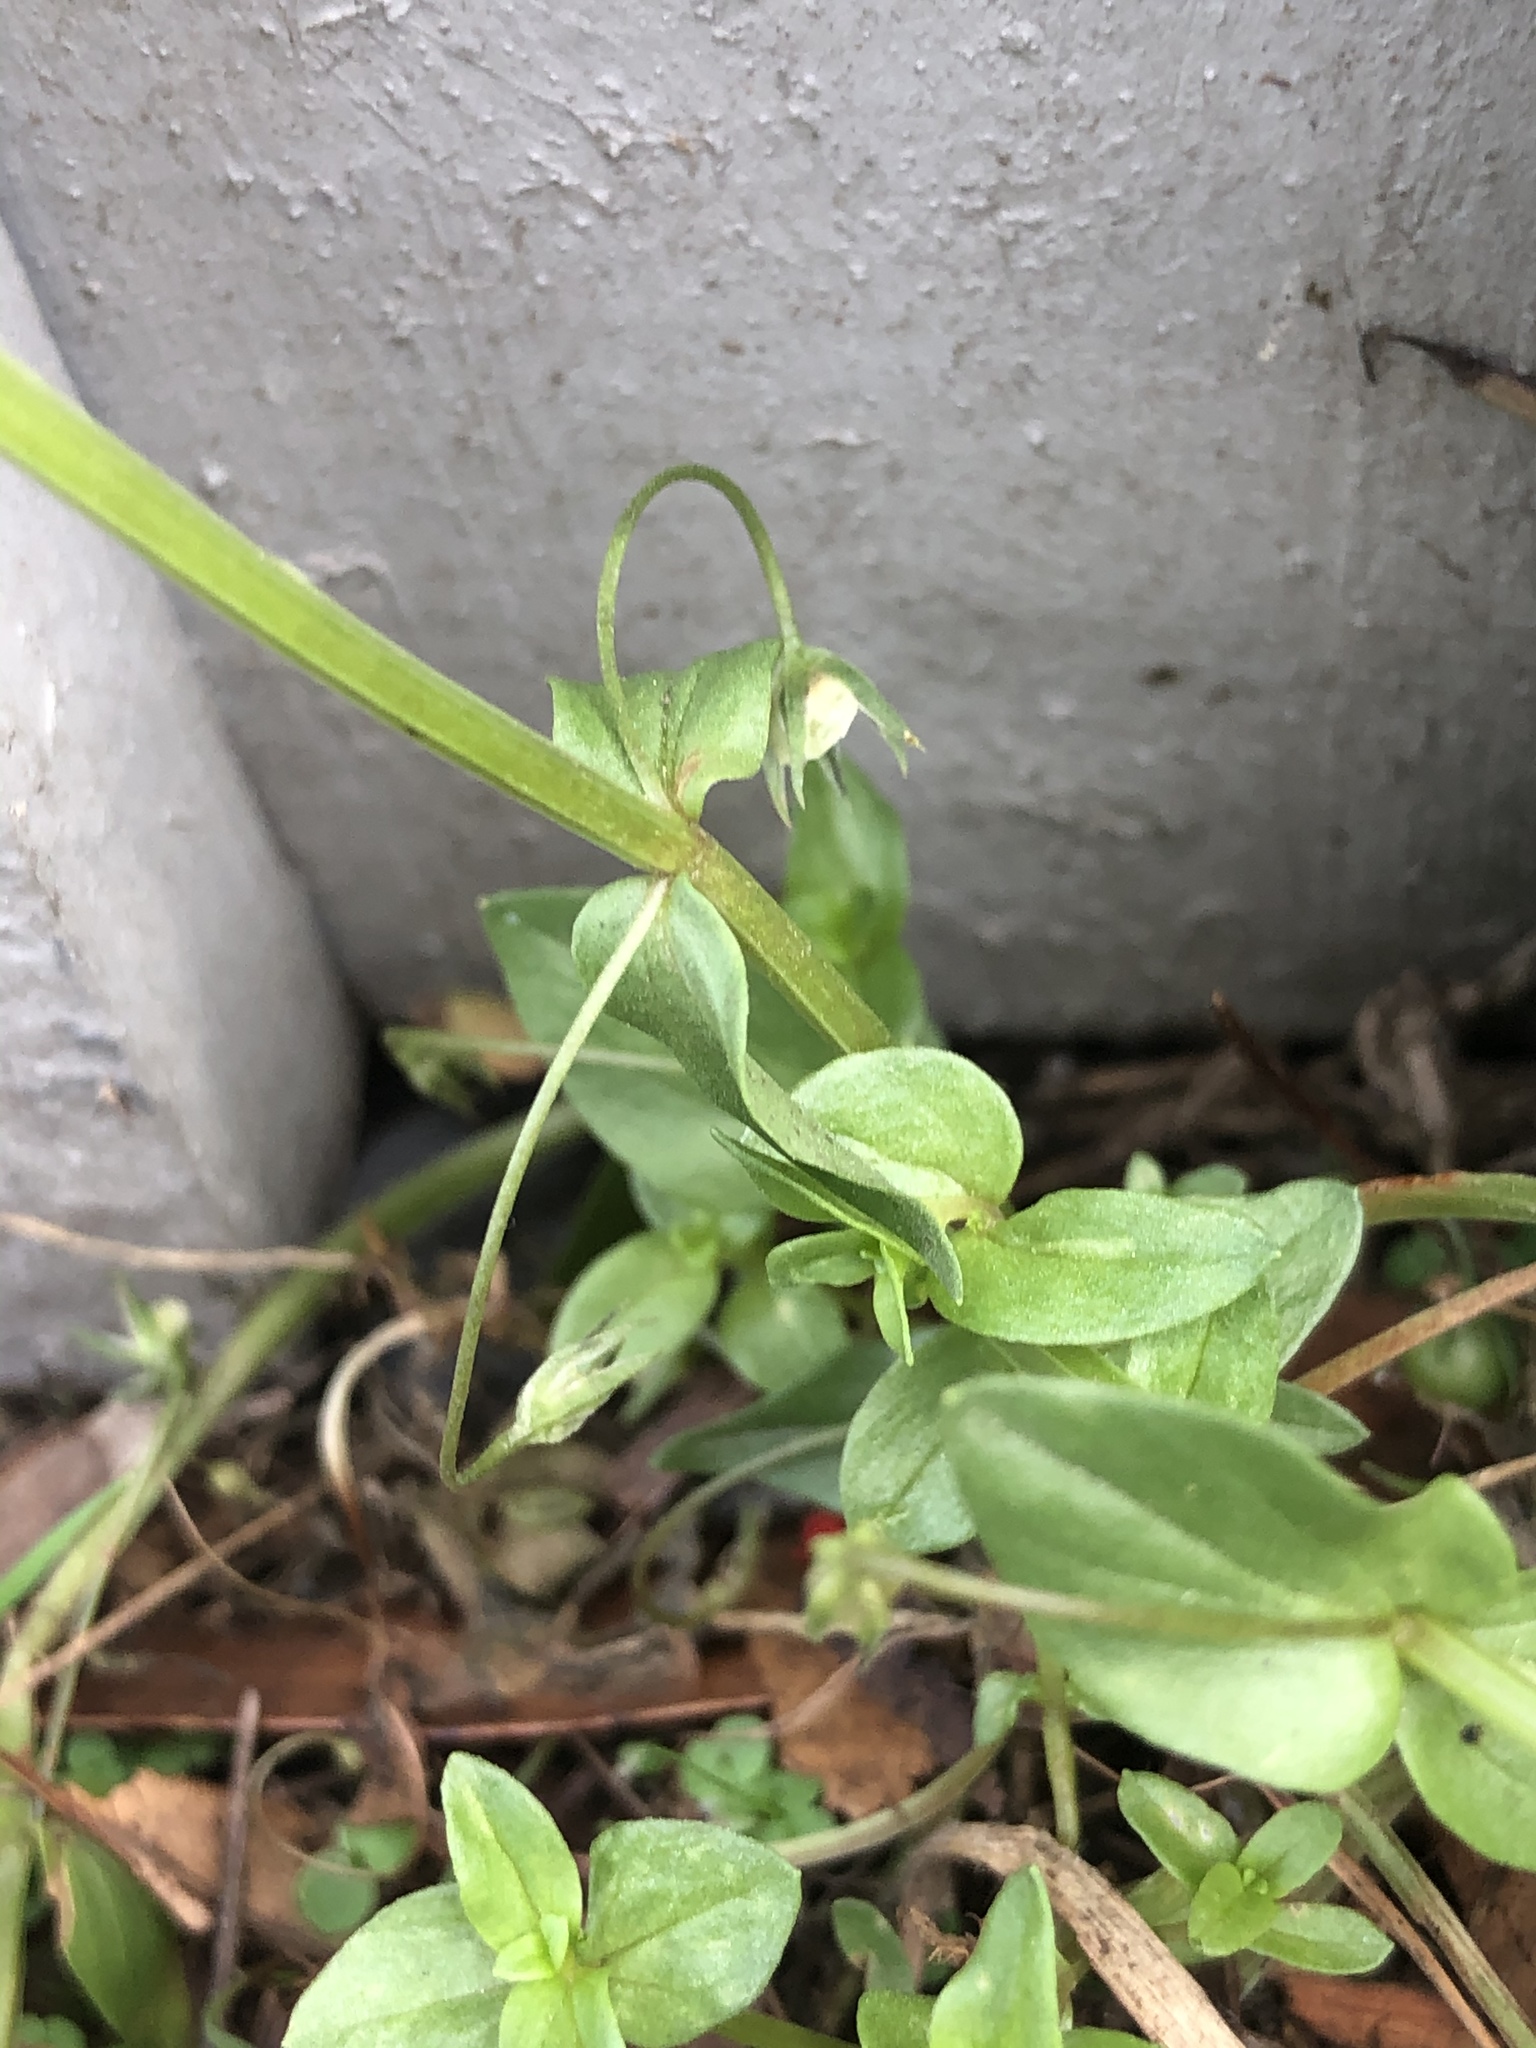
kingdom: Plantae
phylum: Tracheophyta
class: Magnoliopsida
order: Ericales
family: Primulaceae
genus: Lysimachia
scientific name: Lysimachia arvensis
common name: Scarlet pimpernel
